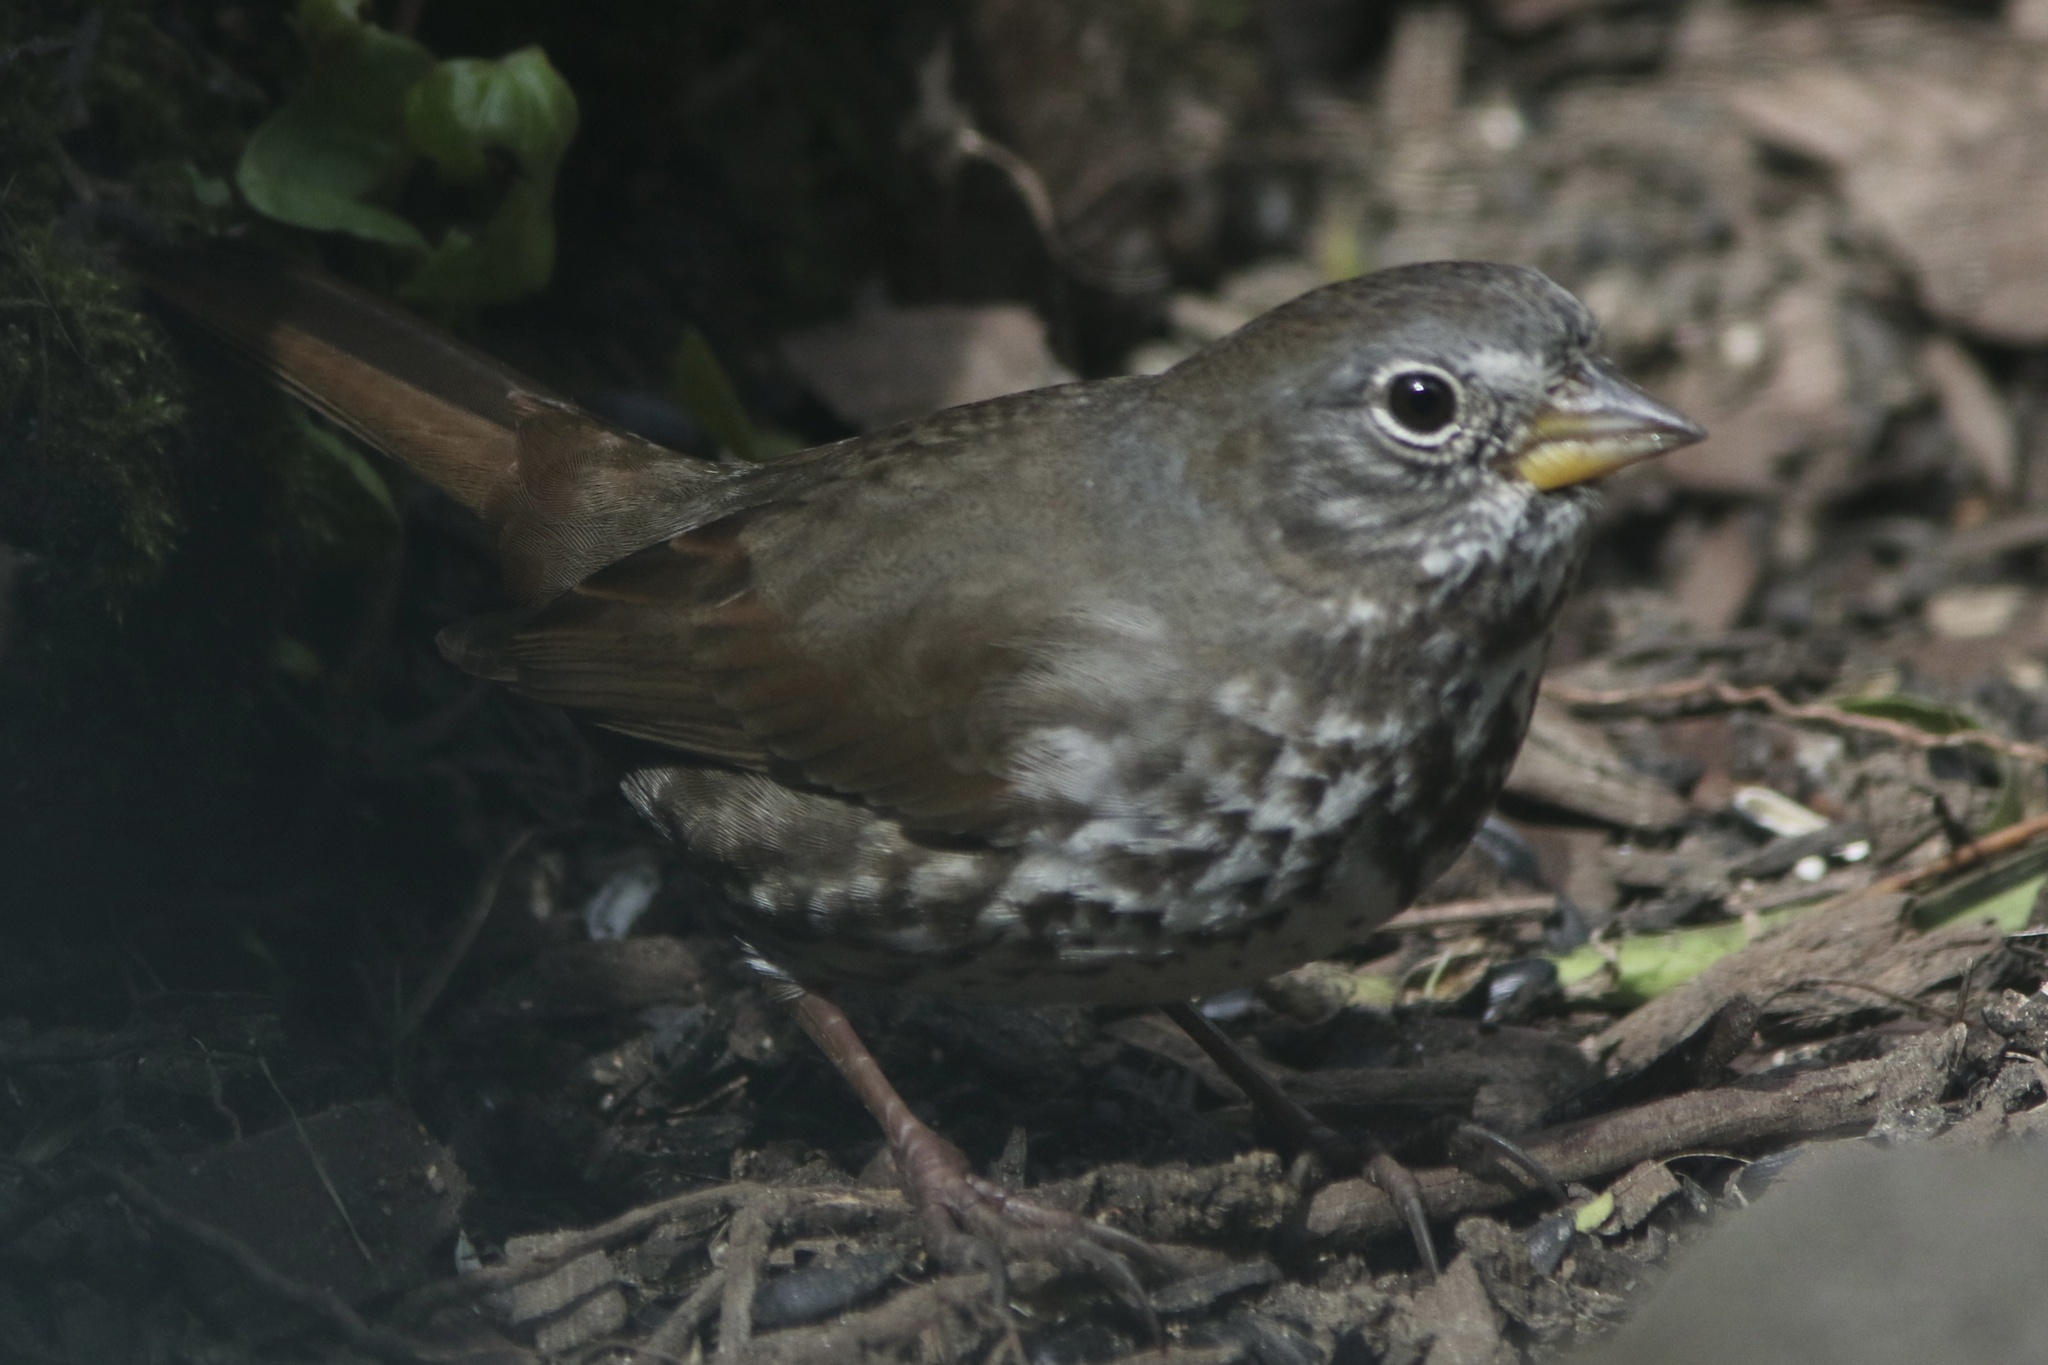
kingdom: Animalia
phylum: Chordata
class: Aves
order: Passeriformes
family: Passerellidae
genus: Passerella
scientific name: Passerella iliaca
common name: Fox sparrow
